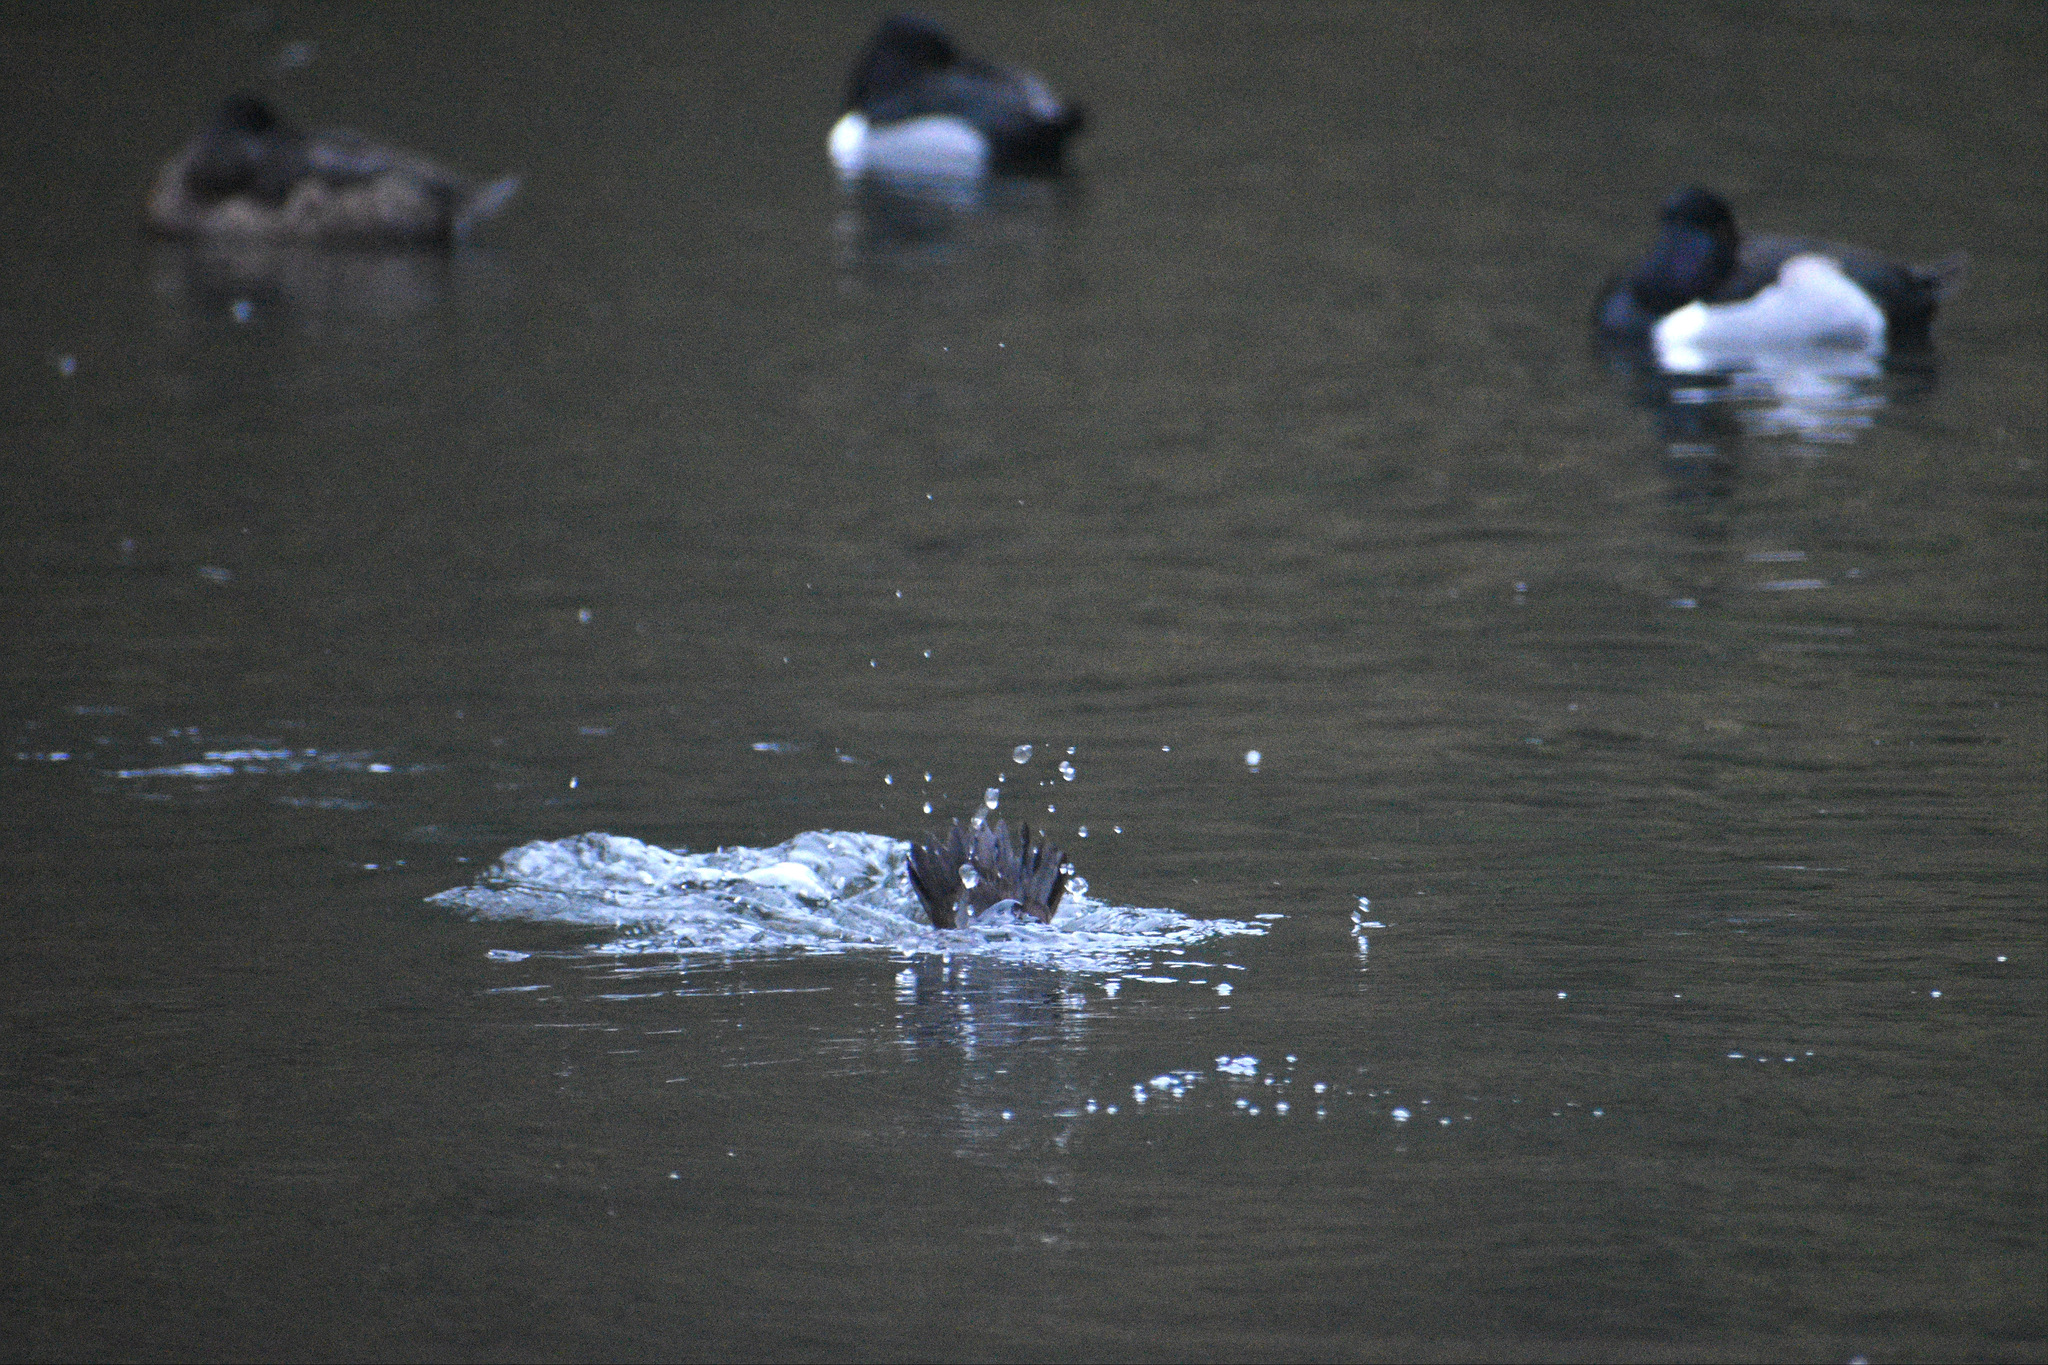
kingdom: Animalia
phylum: Chordata
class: Aves
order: Anseriformes
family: Anatidae
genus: Aythya
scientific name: Aythya collaris
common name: Ring-necked duck
